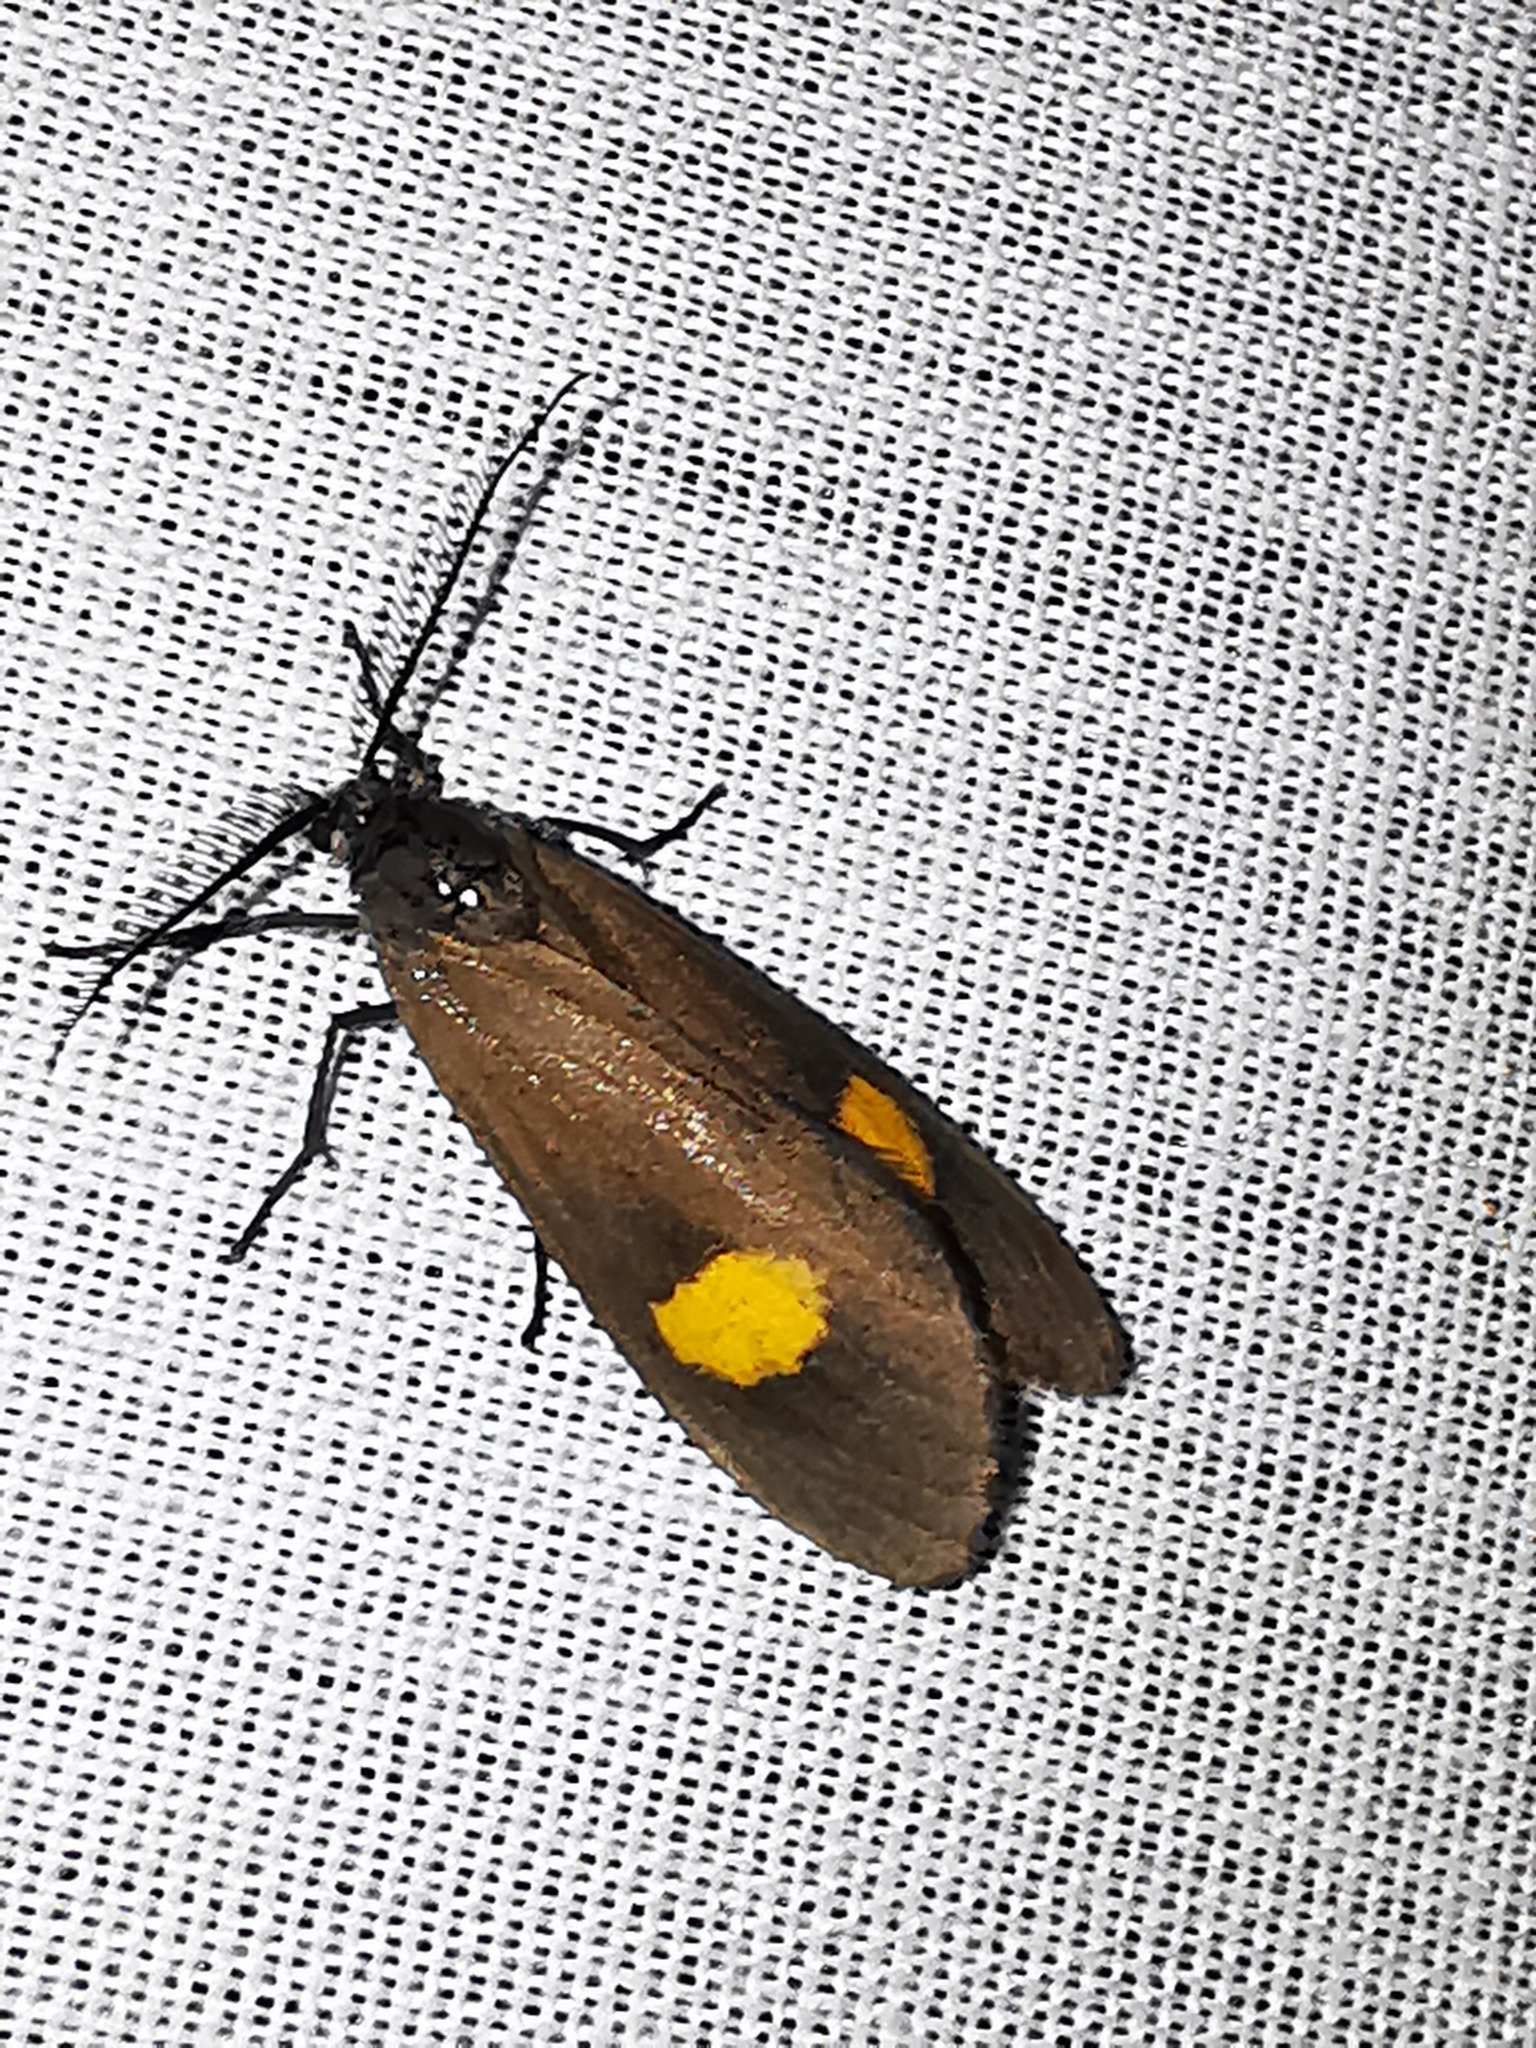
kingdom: Animalia
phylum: Arthropoda
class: Insecta
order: Lepidoptera
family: Notodontidae
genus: Phryganidia
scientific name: Phryganidia naxa
